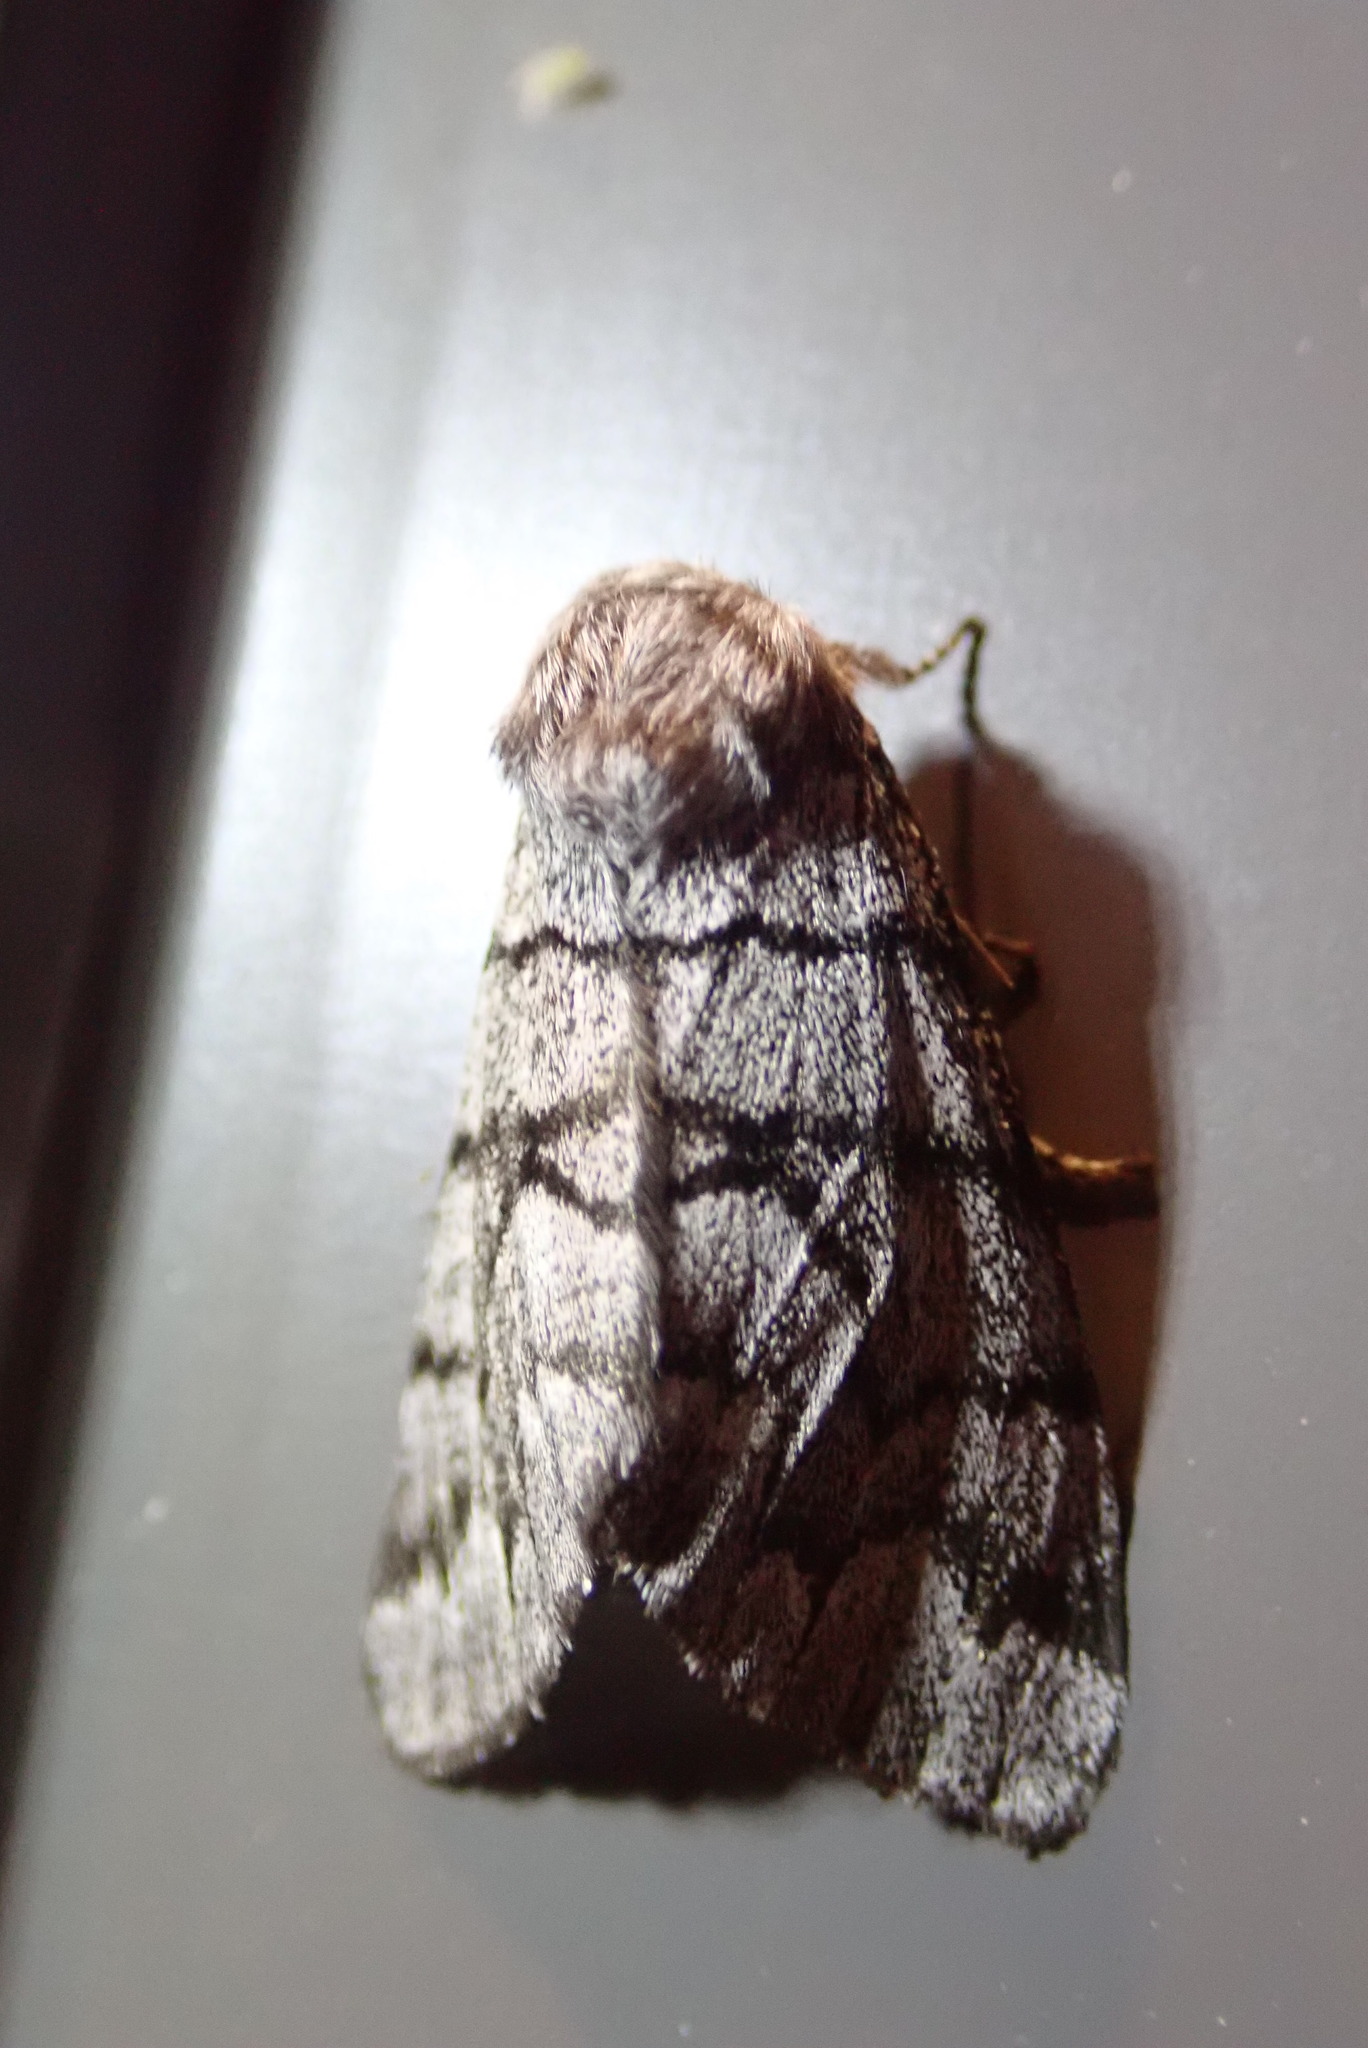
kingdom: Animalia
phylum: Arthropoda
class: Insecta
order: Lepidoptera
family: Noctuidae
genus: Panthea
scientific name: Panthea furcilla
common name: Eastern panthea moth
